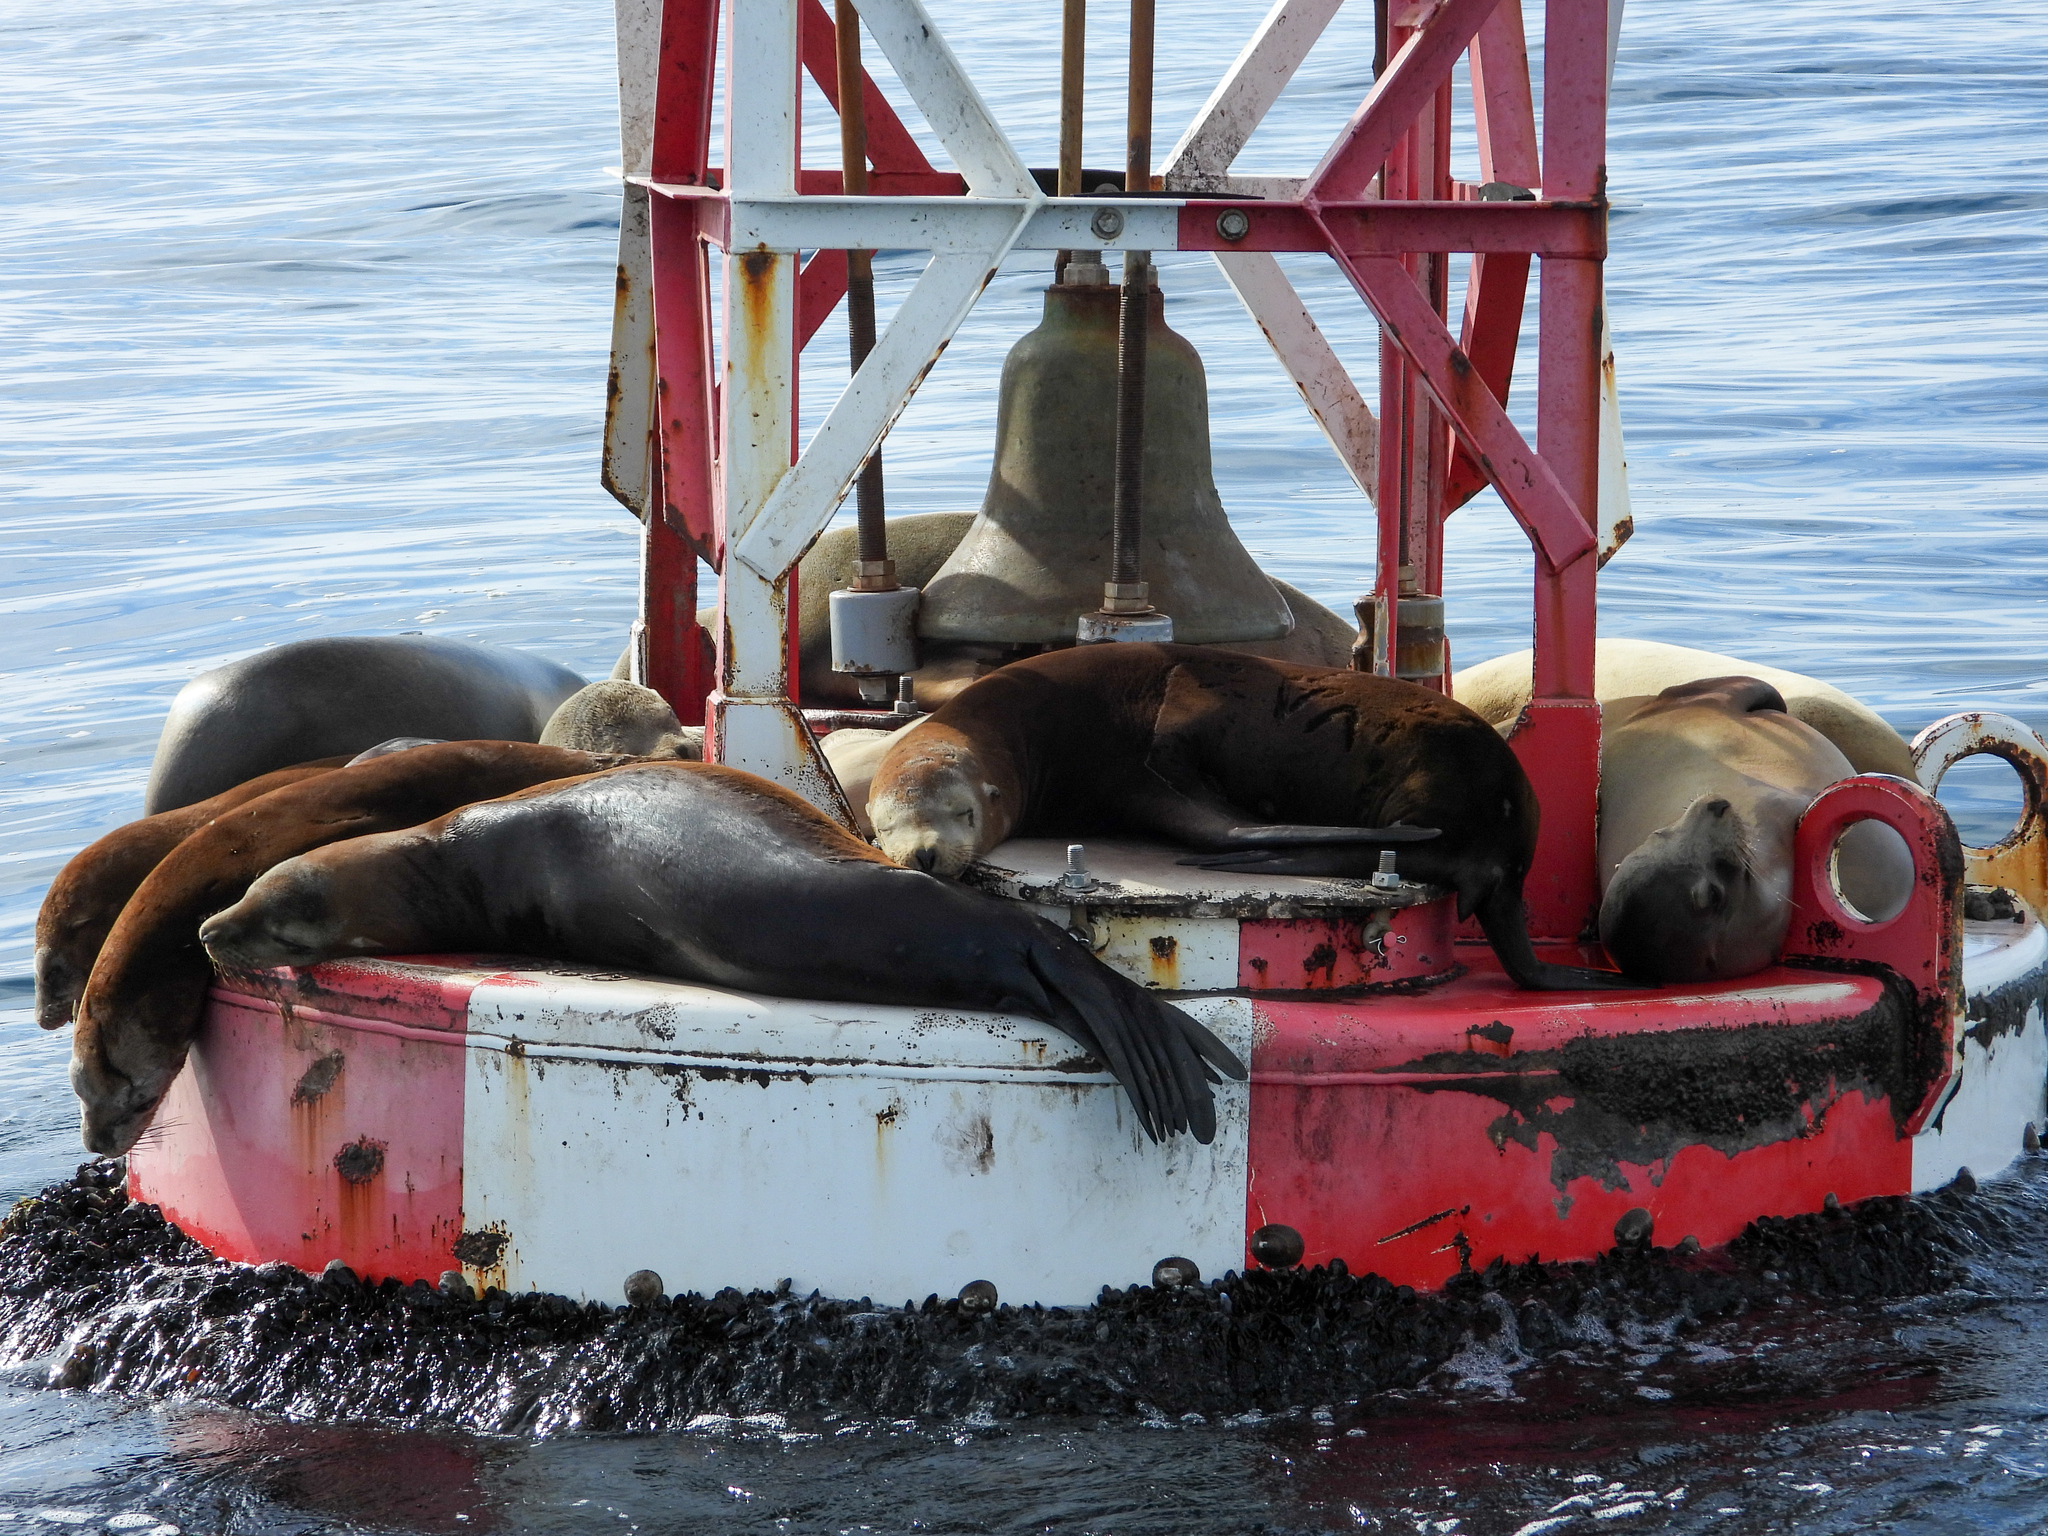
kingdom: Animalia
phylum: Chordata
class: Mammalia
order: Carnivora
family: Otariidae
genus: Zalophus
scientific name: Zalophus californianus
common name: California sea lion
